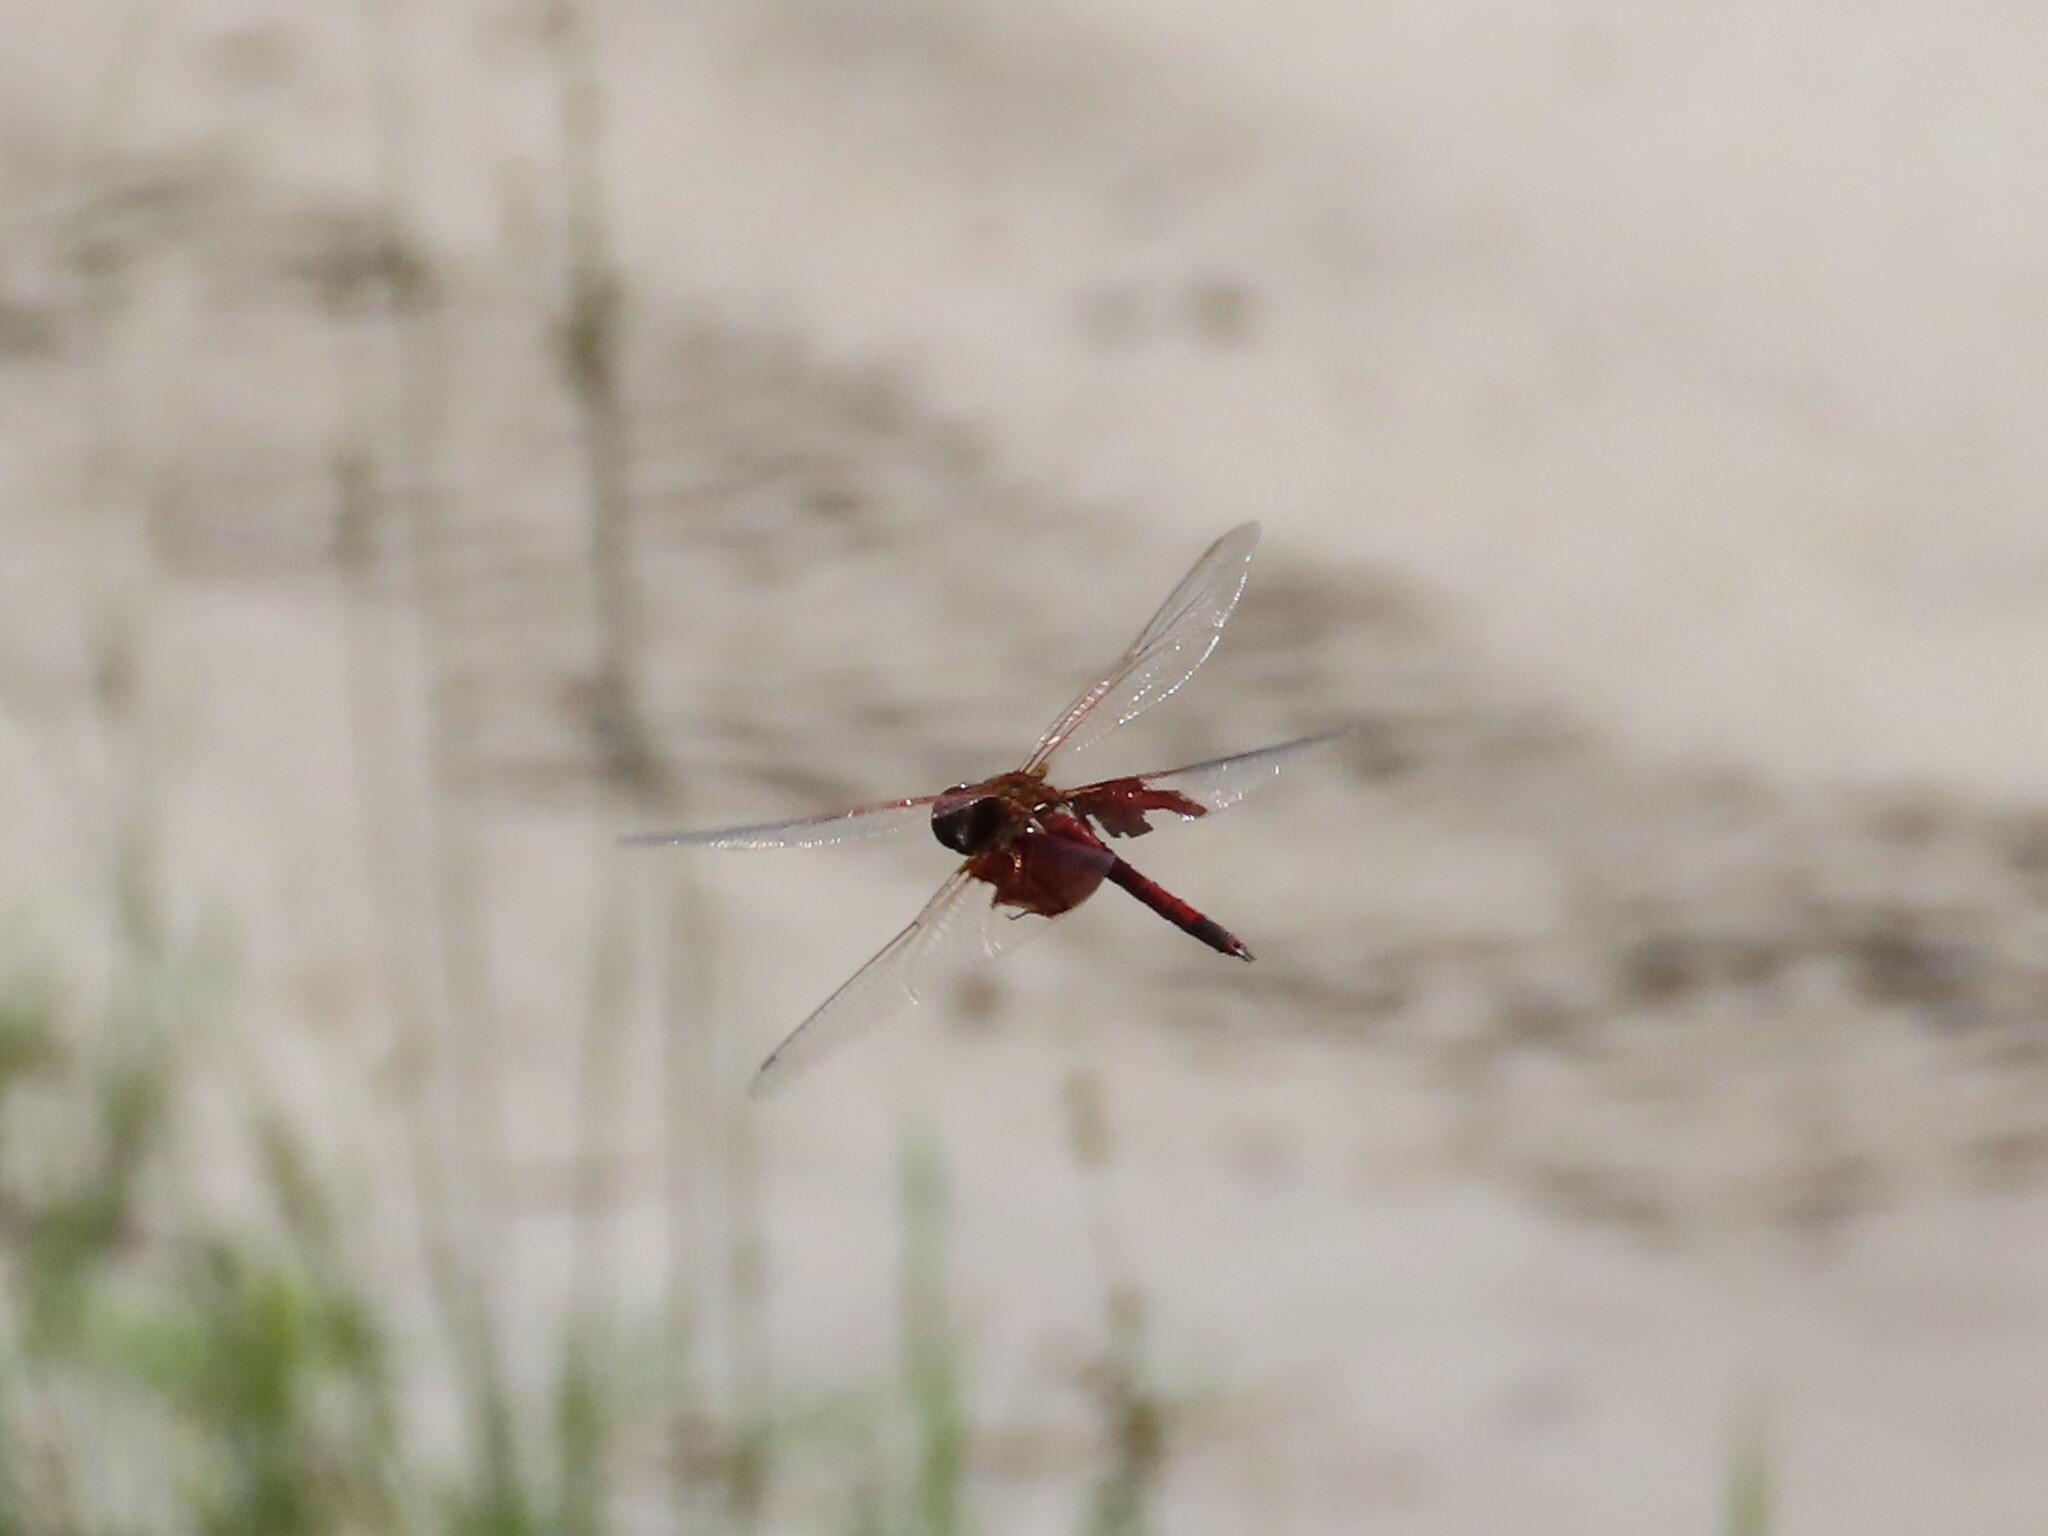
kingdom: Animalia
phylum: Arthropoda
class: Insecta
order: Odonata
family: Libellulidae
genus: Tramea
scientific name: Tramea carolina
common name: Carolina saddlebags
